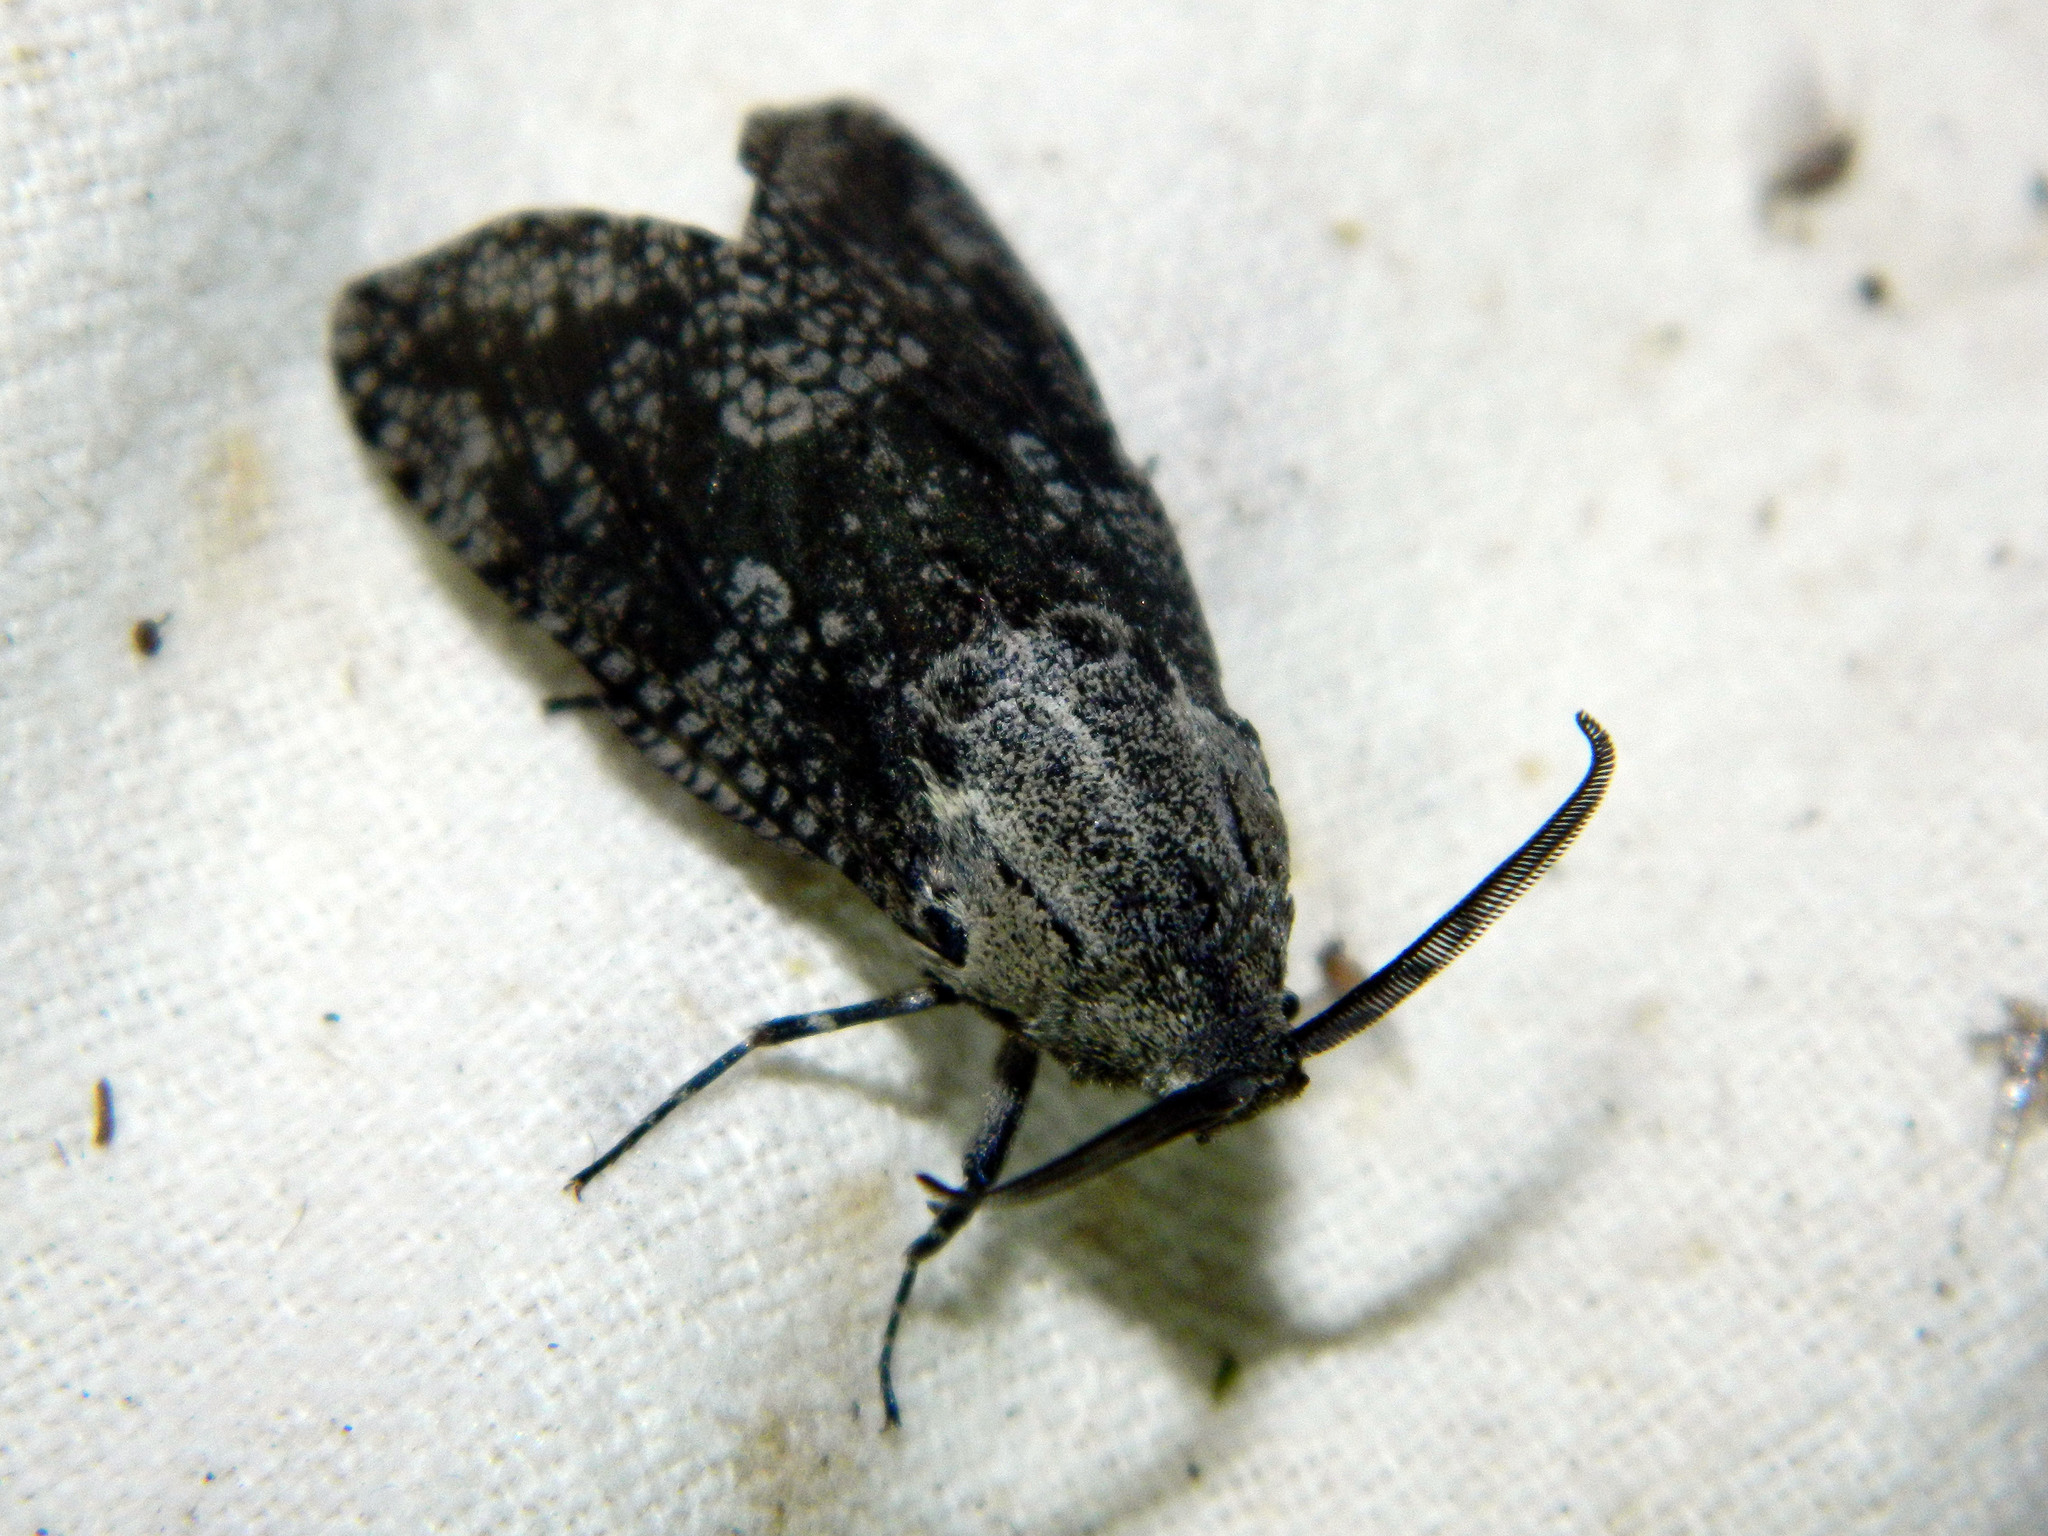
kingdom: Animalia
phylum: Arthropoda
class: Insecta
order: Lepidoptera
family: Cossidae
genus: Prionoxystus
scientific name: Prionoxystus robiniae
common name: Carpenterworm
